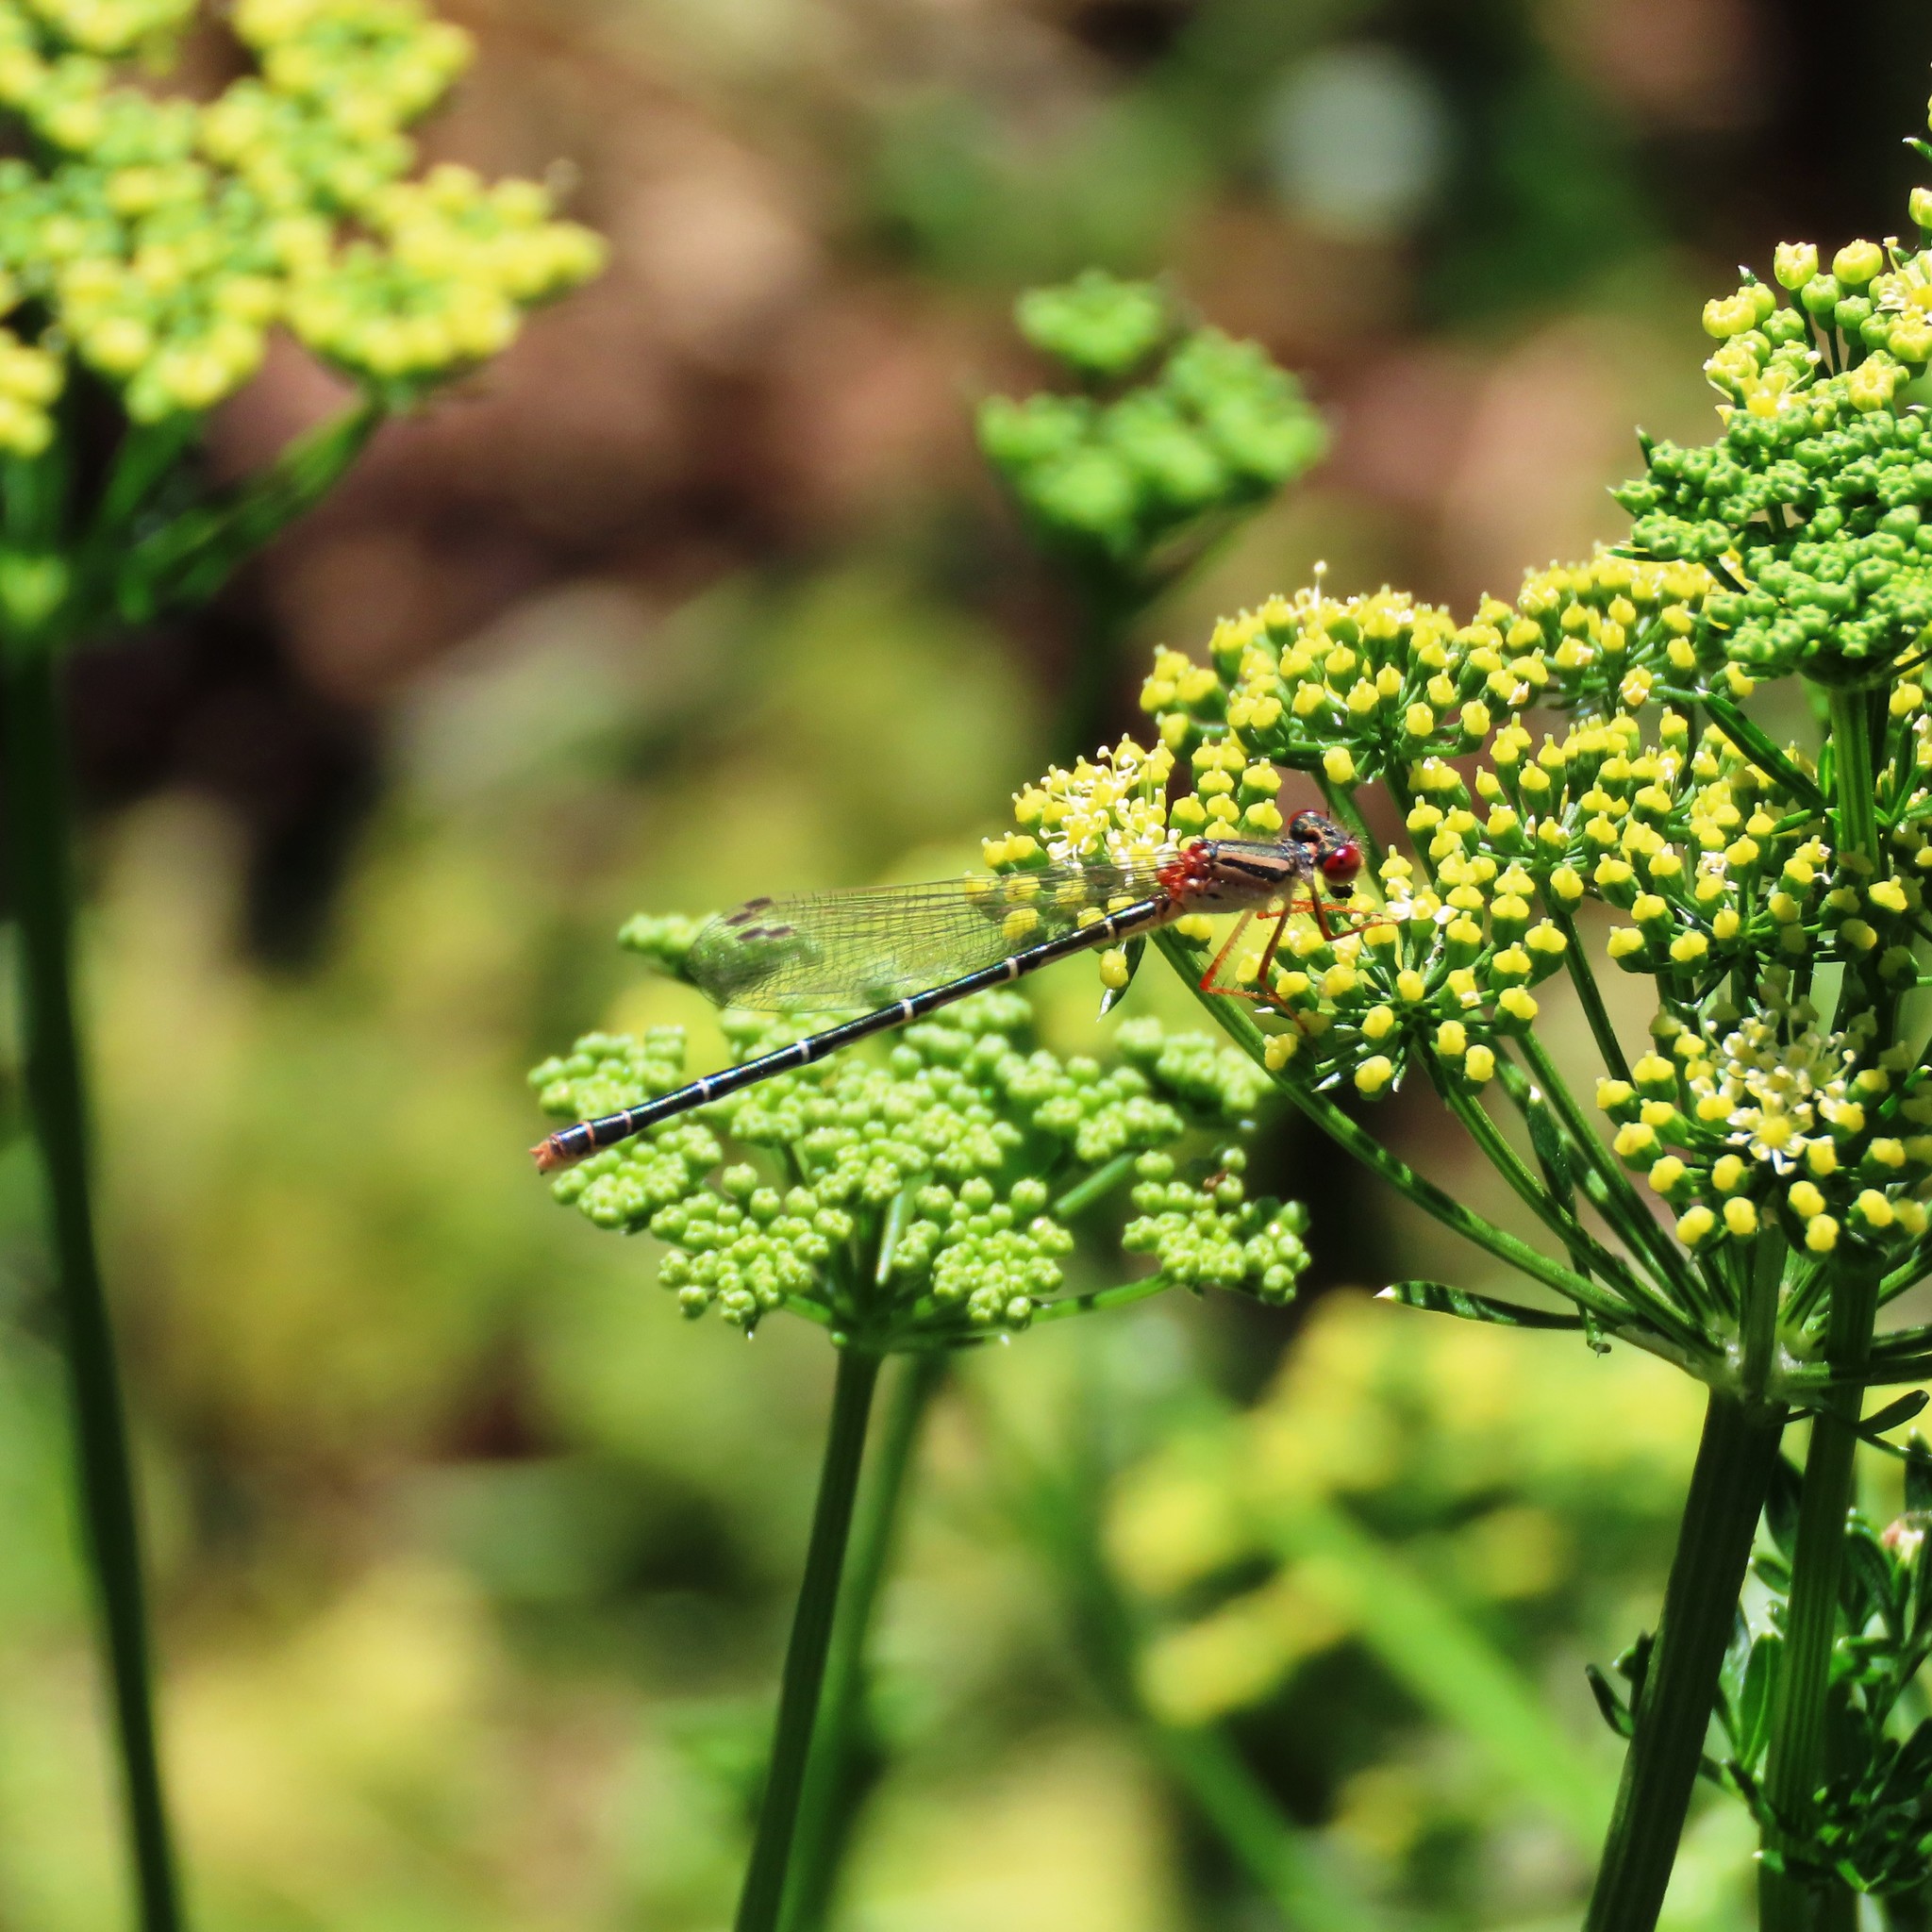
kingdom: Animalia
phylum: Arthropoda
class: Insecta
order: Odonata
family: Coenagrionidae
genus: Xanthagrion
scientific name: Xanthagrion erythroneurum
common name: Red and blue damsel
